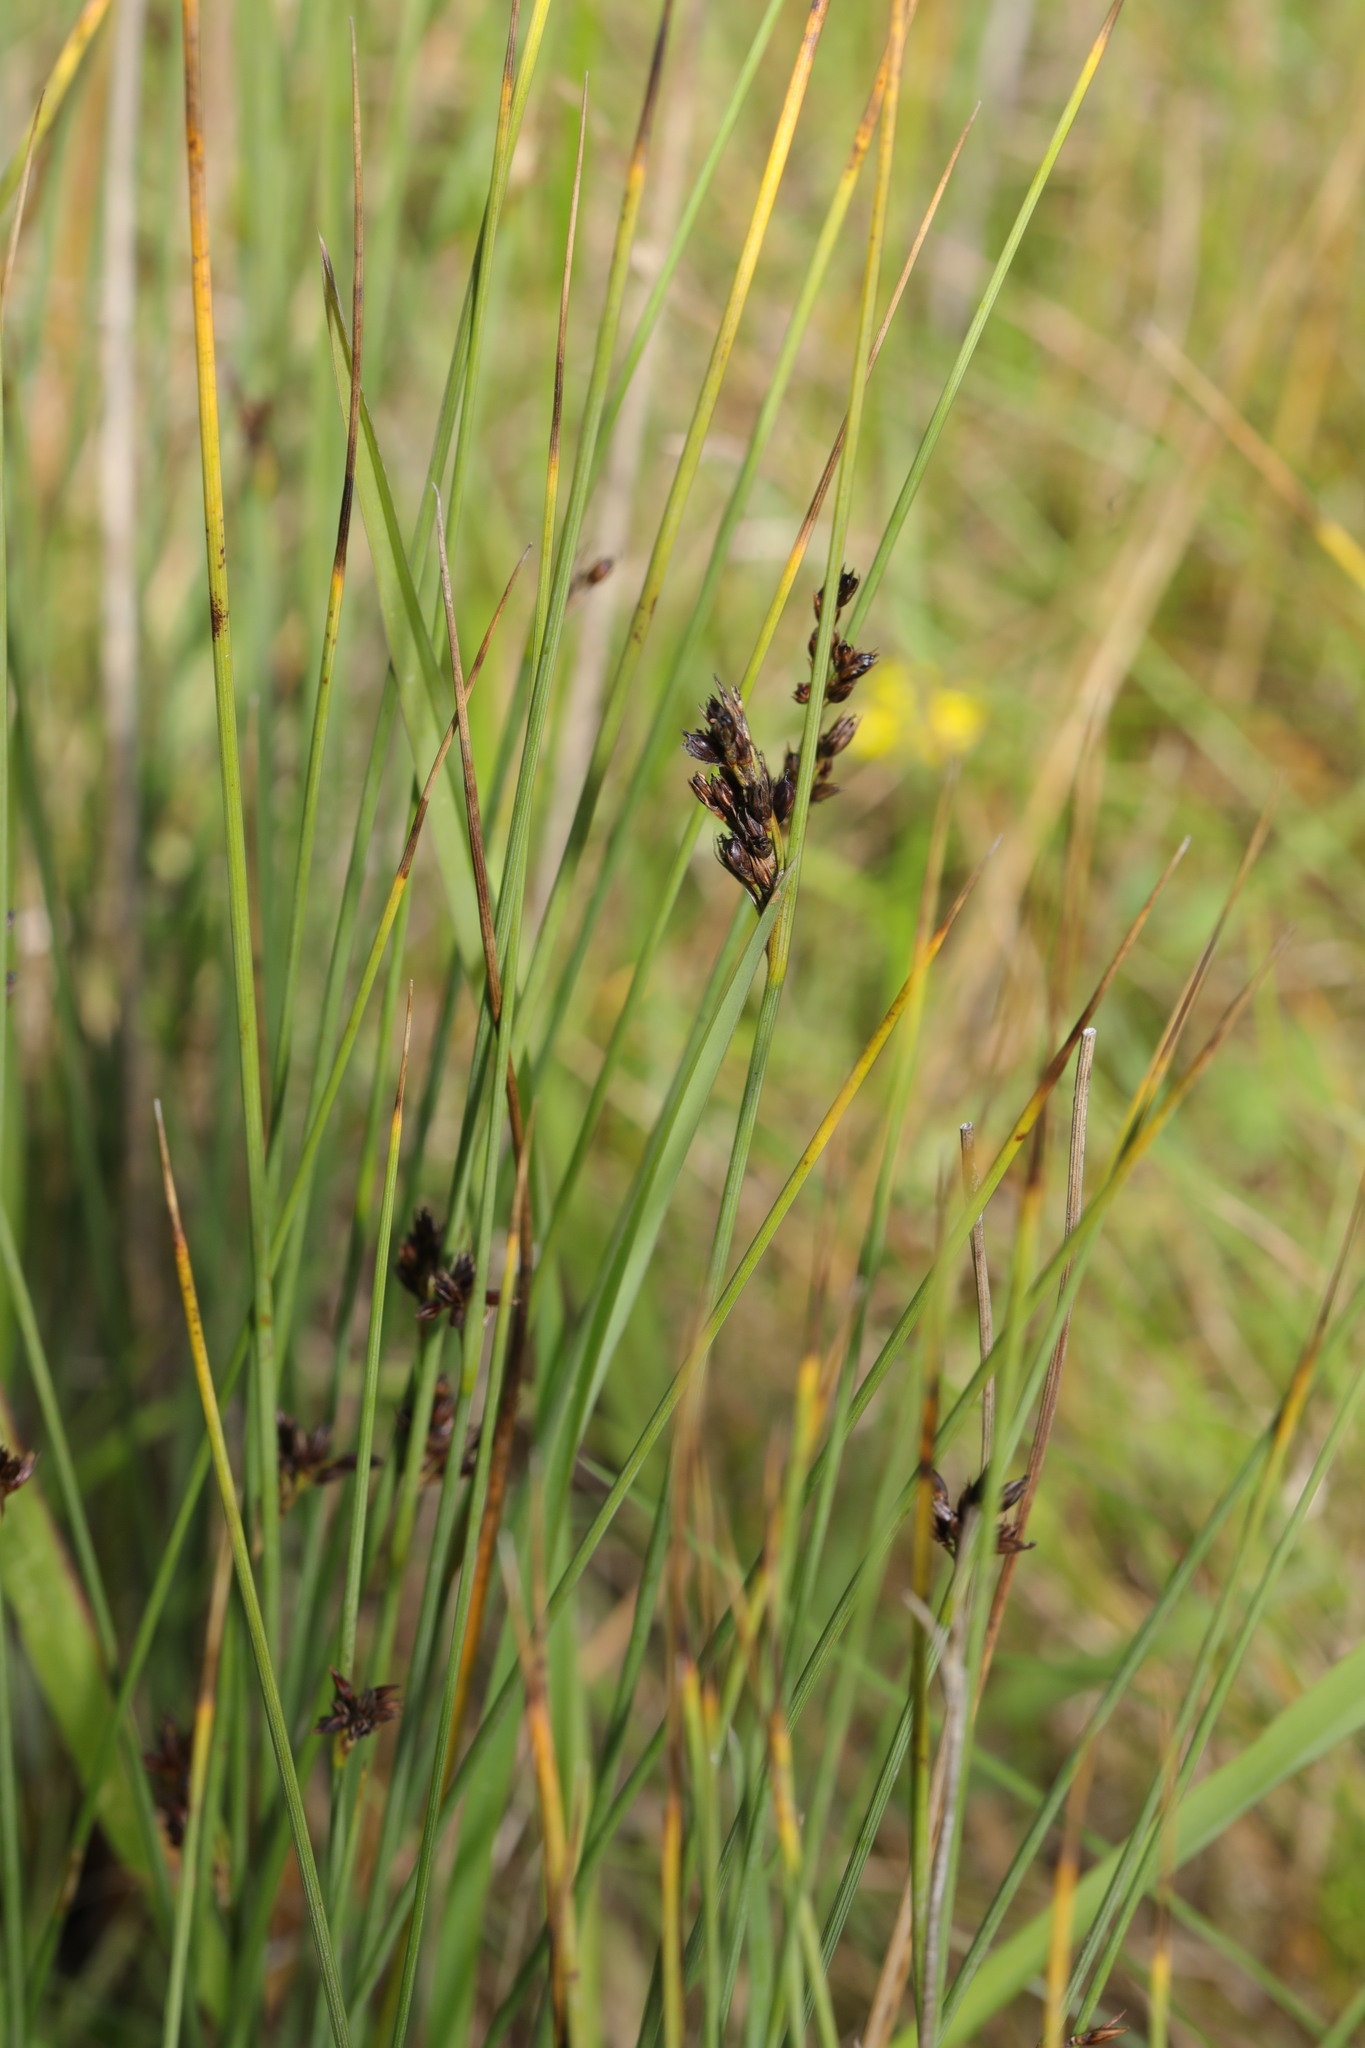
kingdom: Plantae
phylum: Tracheophyta
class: Liliopsida
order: Poales
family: Juncaceae
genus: Juncus
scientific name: Juncus inflexus
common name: Hard rush
